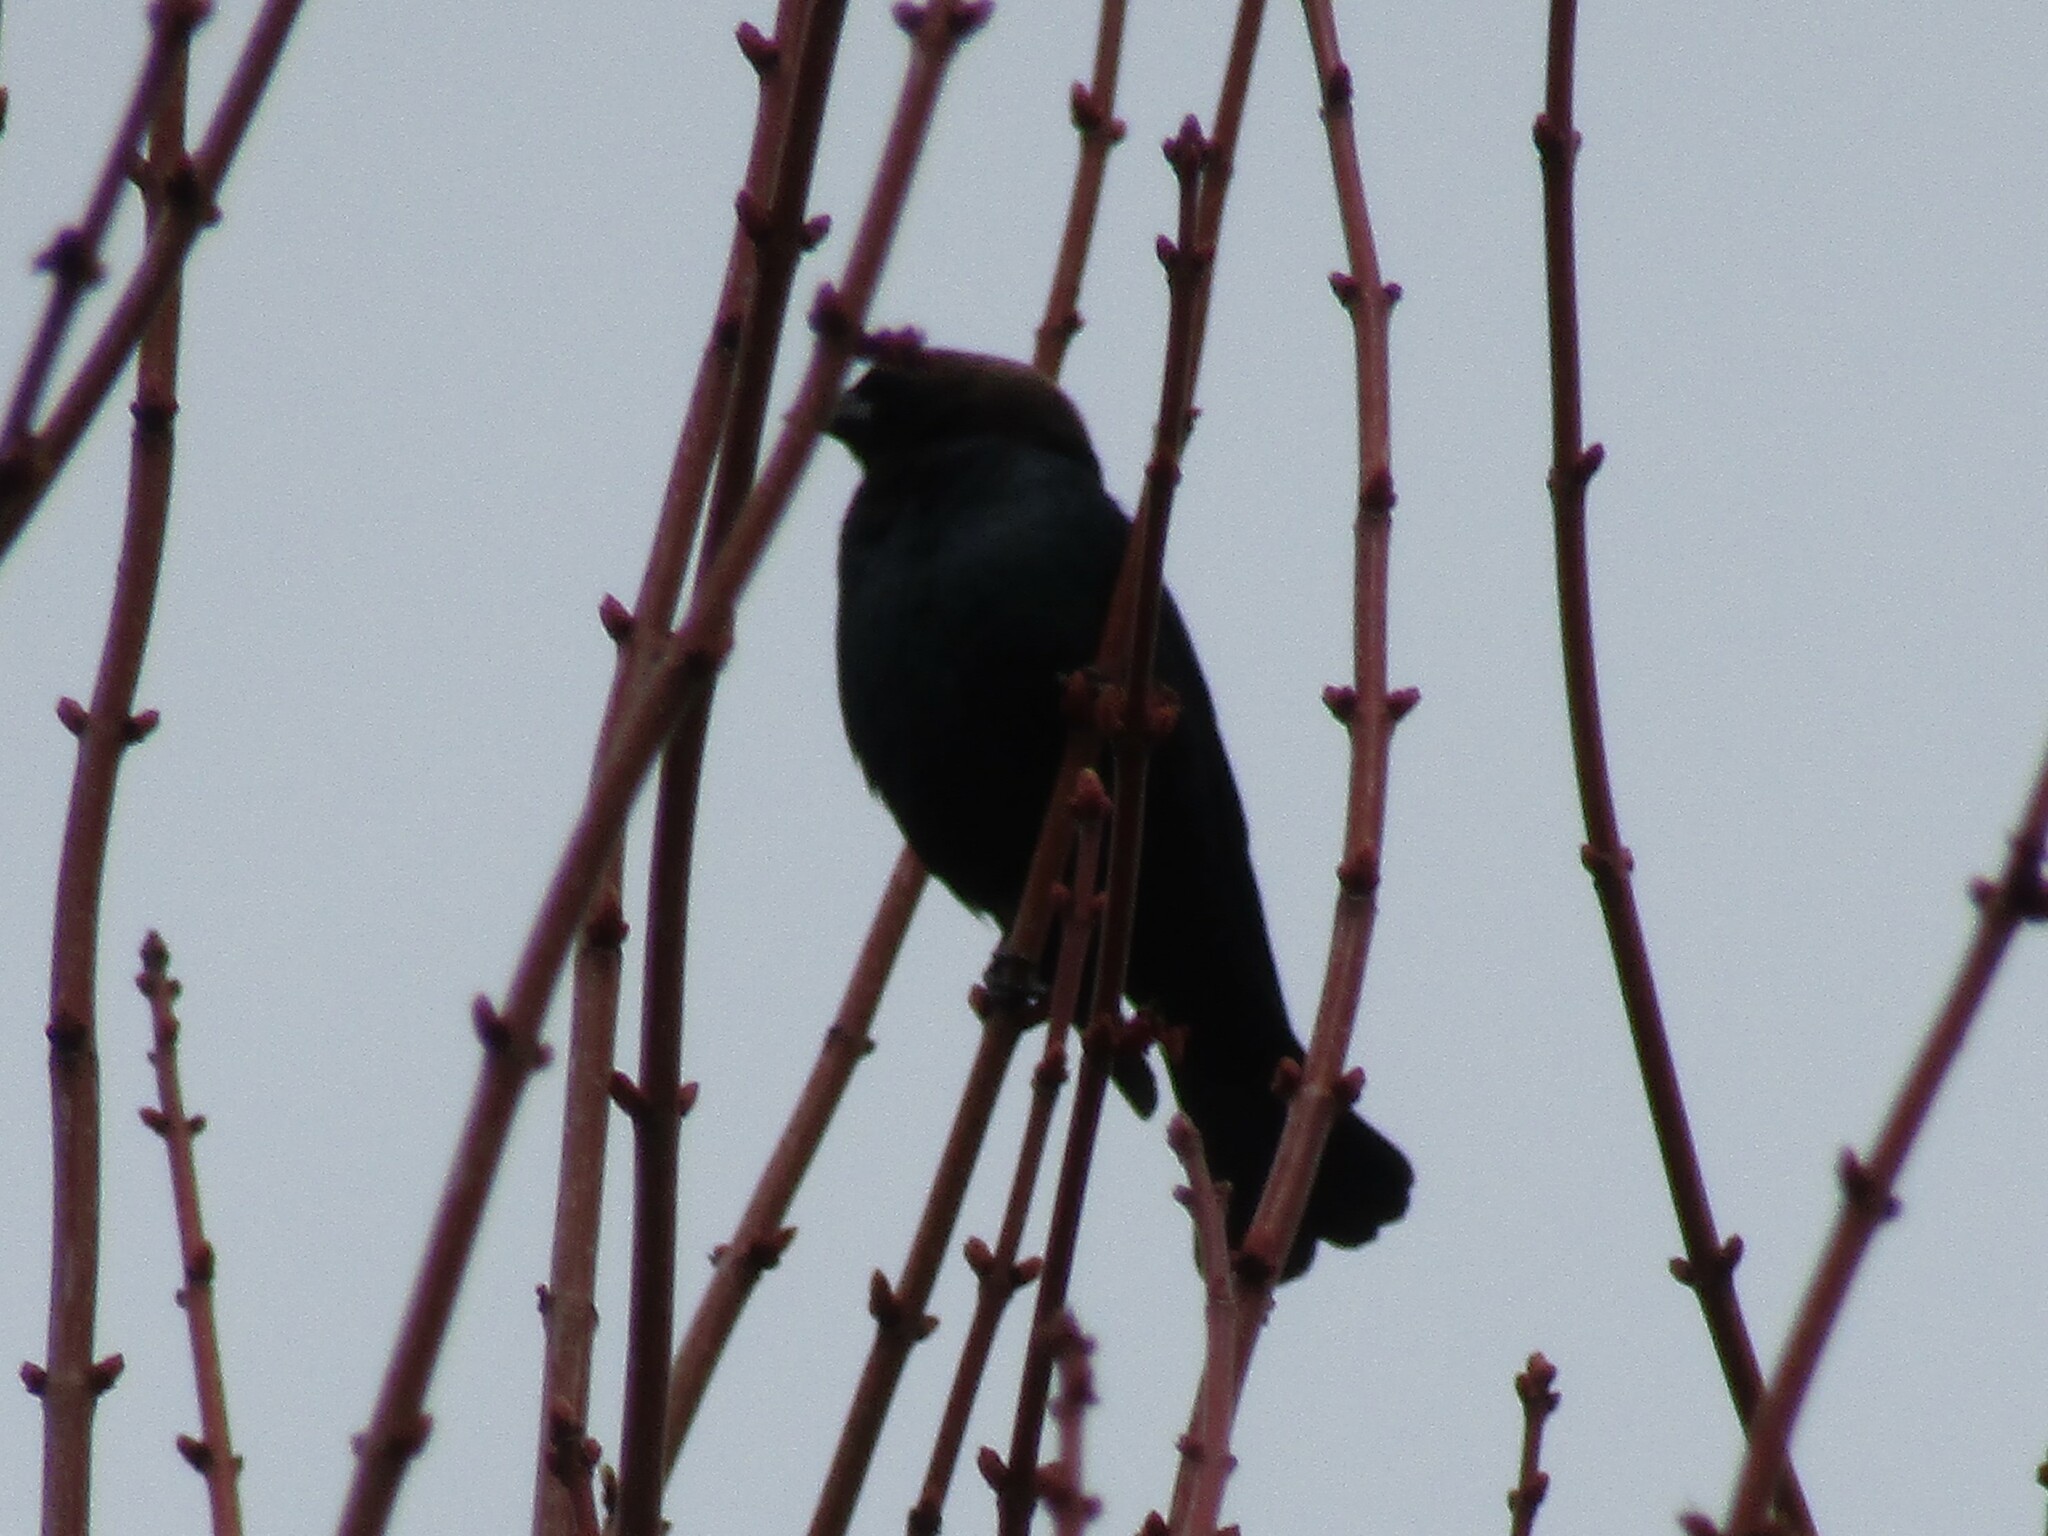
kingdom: Animalia
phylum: Chordata
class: Aves
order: Passeriformes
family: Icteridae
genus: Molothrus
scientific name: Molothrus ater
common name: Brown-headed cowbird
